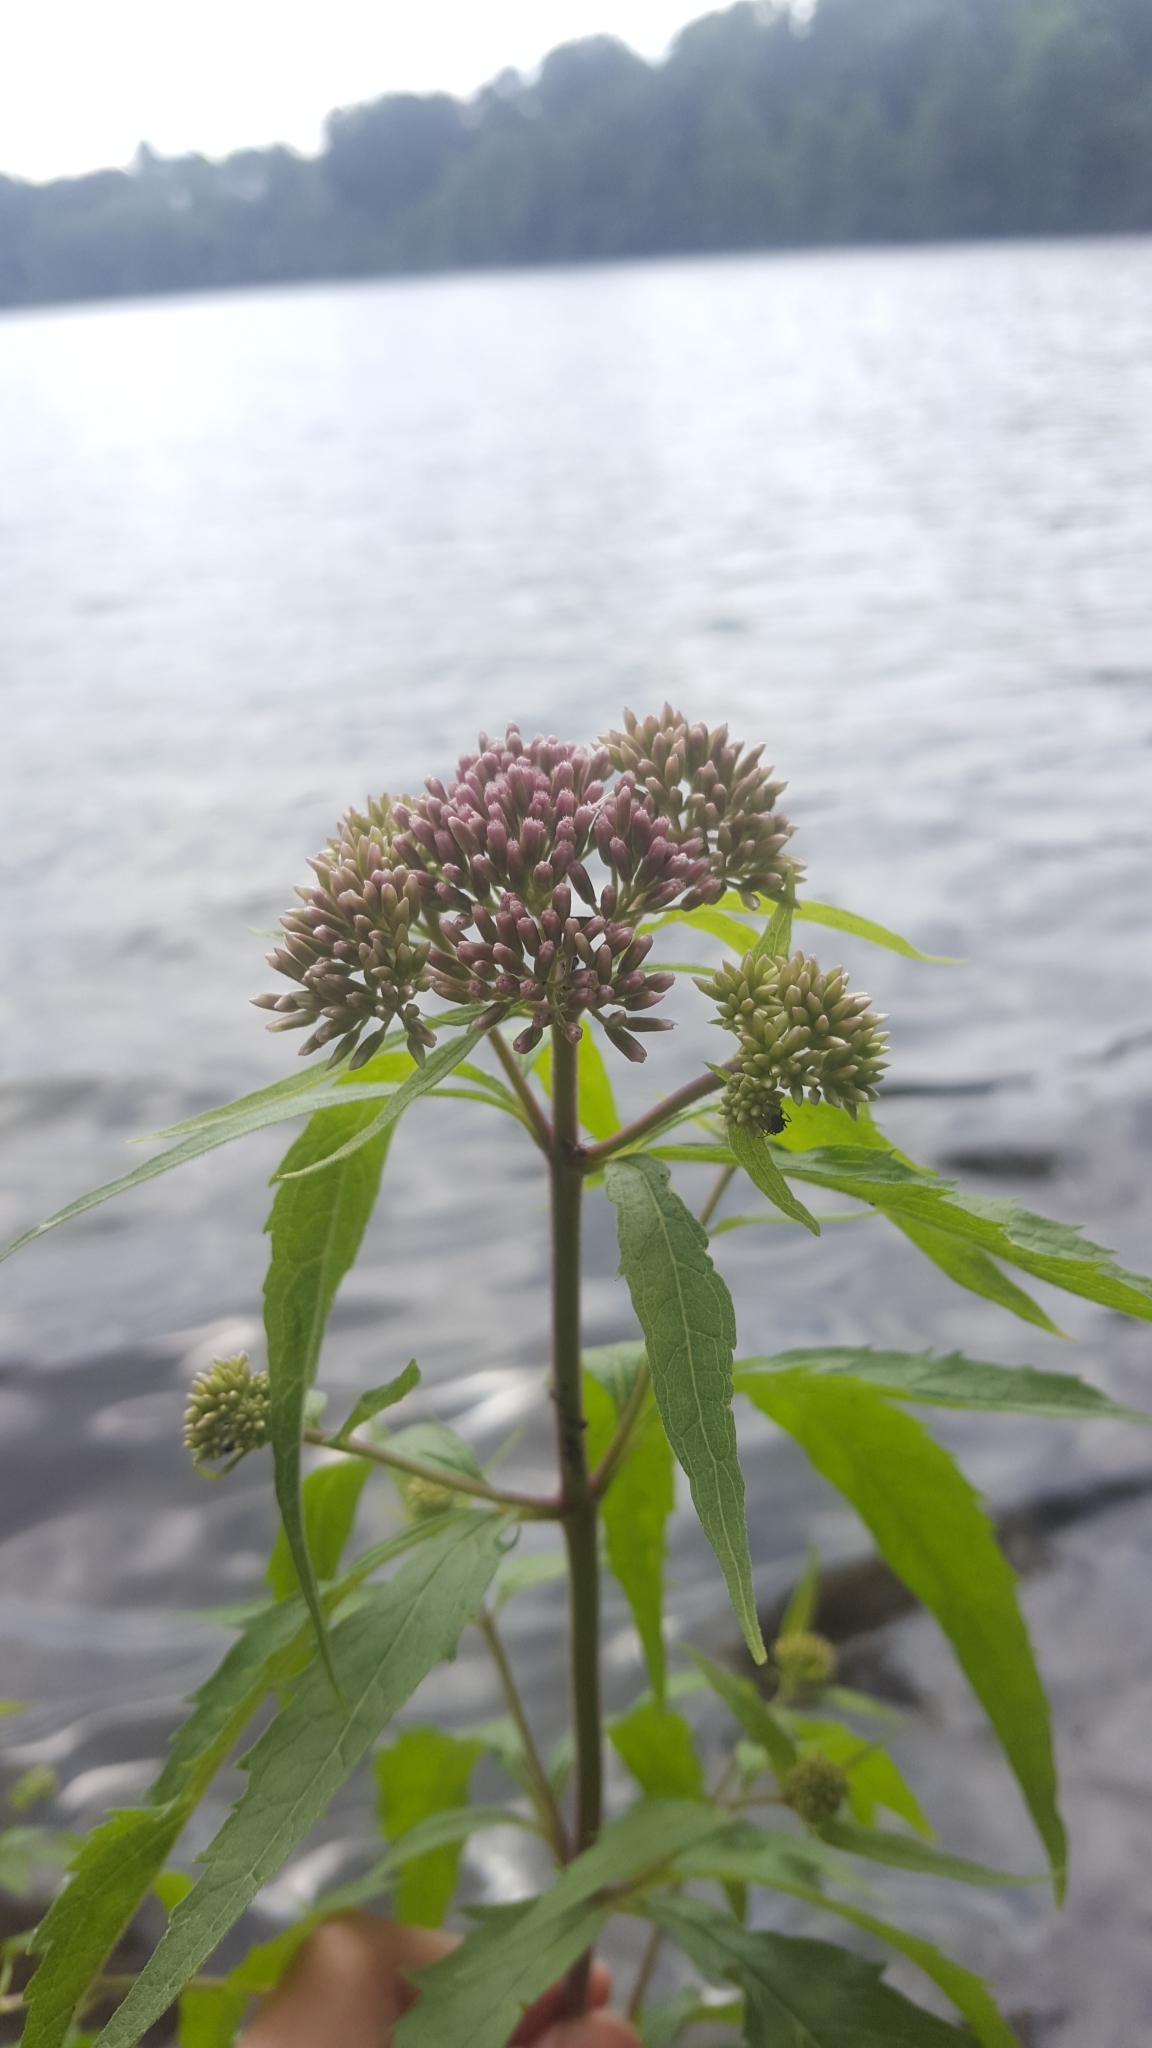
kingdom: Plantae
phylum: Tracheophyta
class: Magnoliopsida
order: Asterales
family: Asteraceae
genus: Eupatorium
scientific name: Eupatorium cannabinum
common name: Hemp-agrimony
